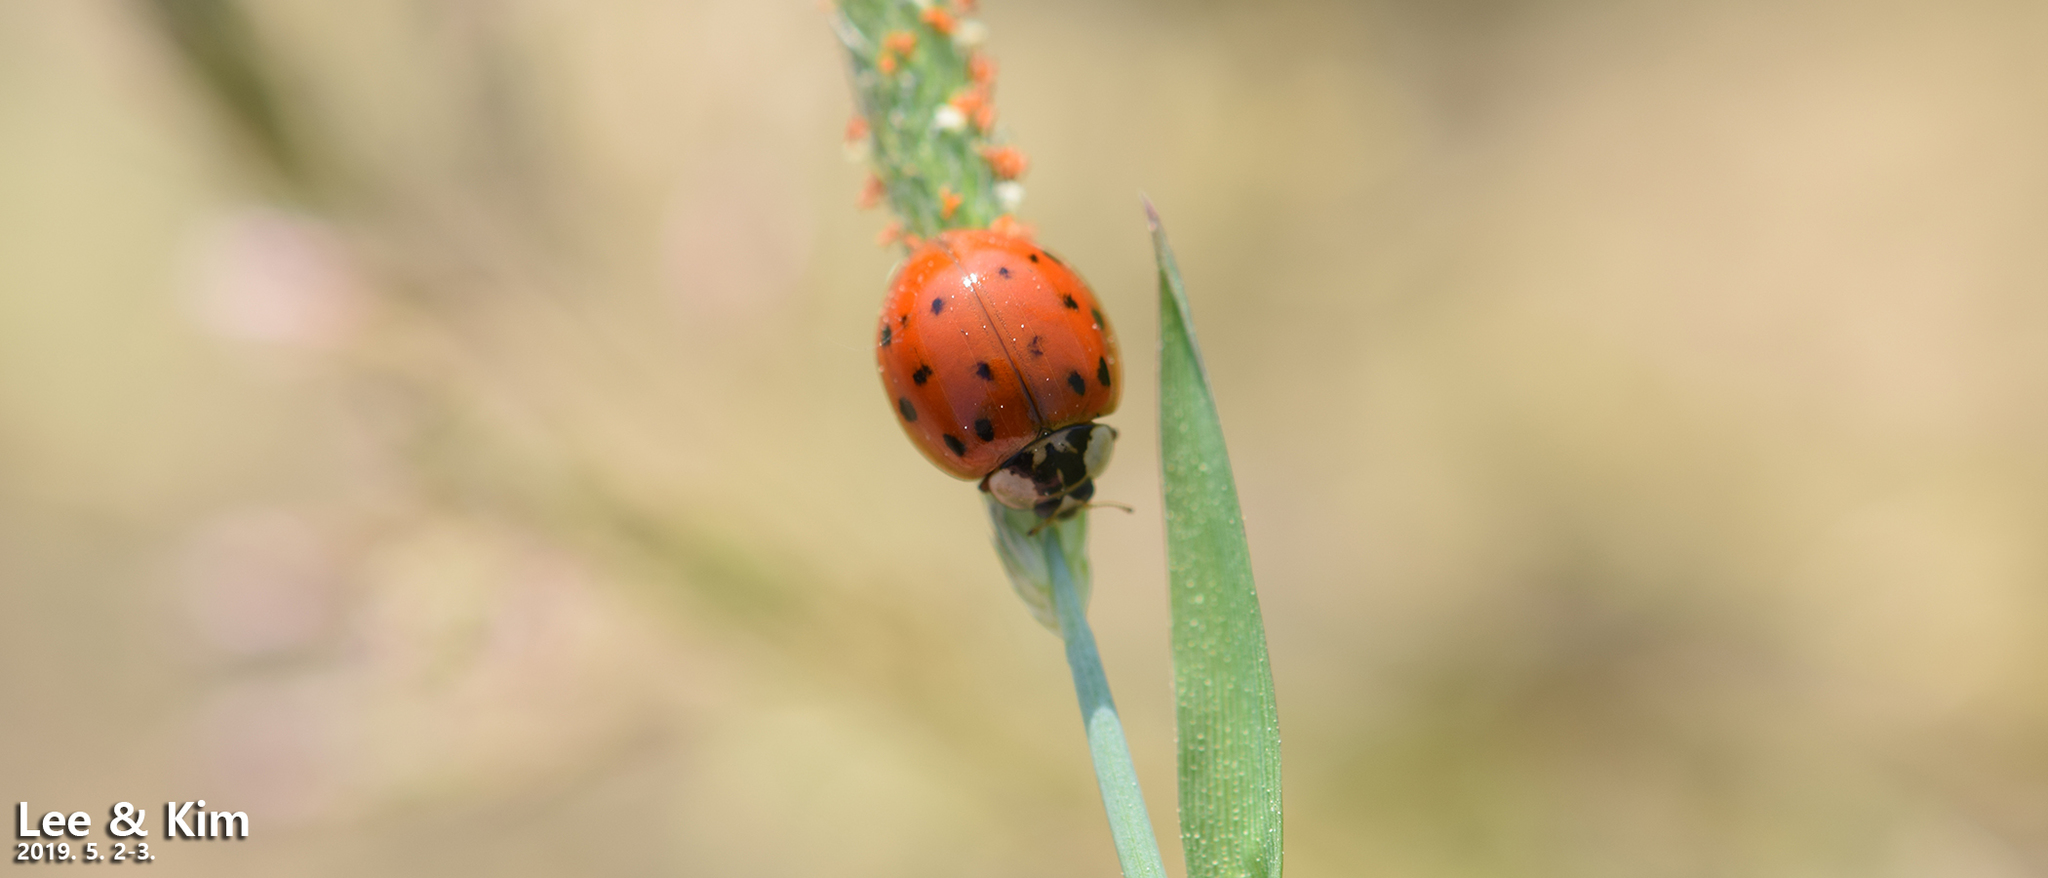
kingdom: Animalia
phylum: Arthropoda
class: Insecta
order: Coleoptera
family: Coccinellidae
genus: Harmonia
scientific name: Harmonia axyridis
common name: Harlequin ladybird
